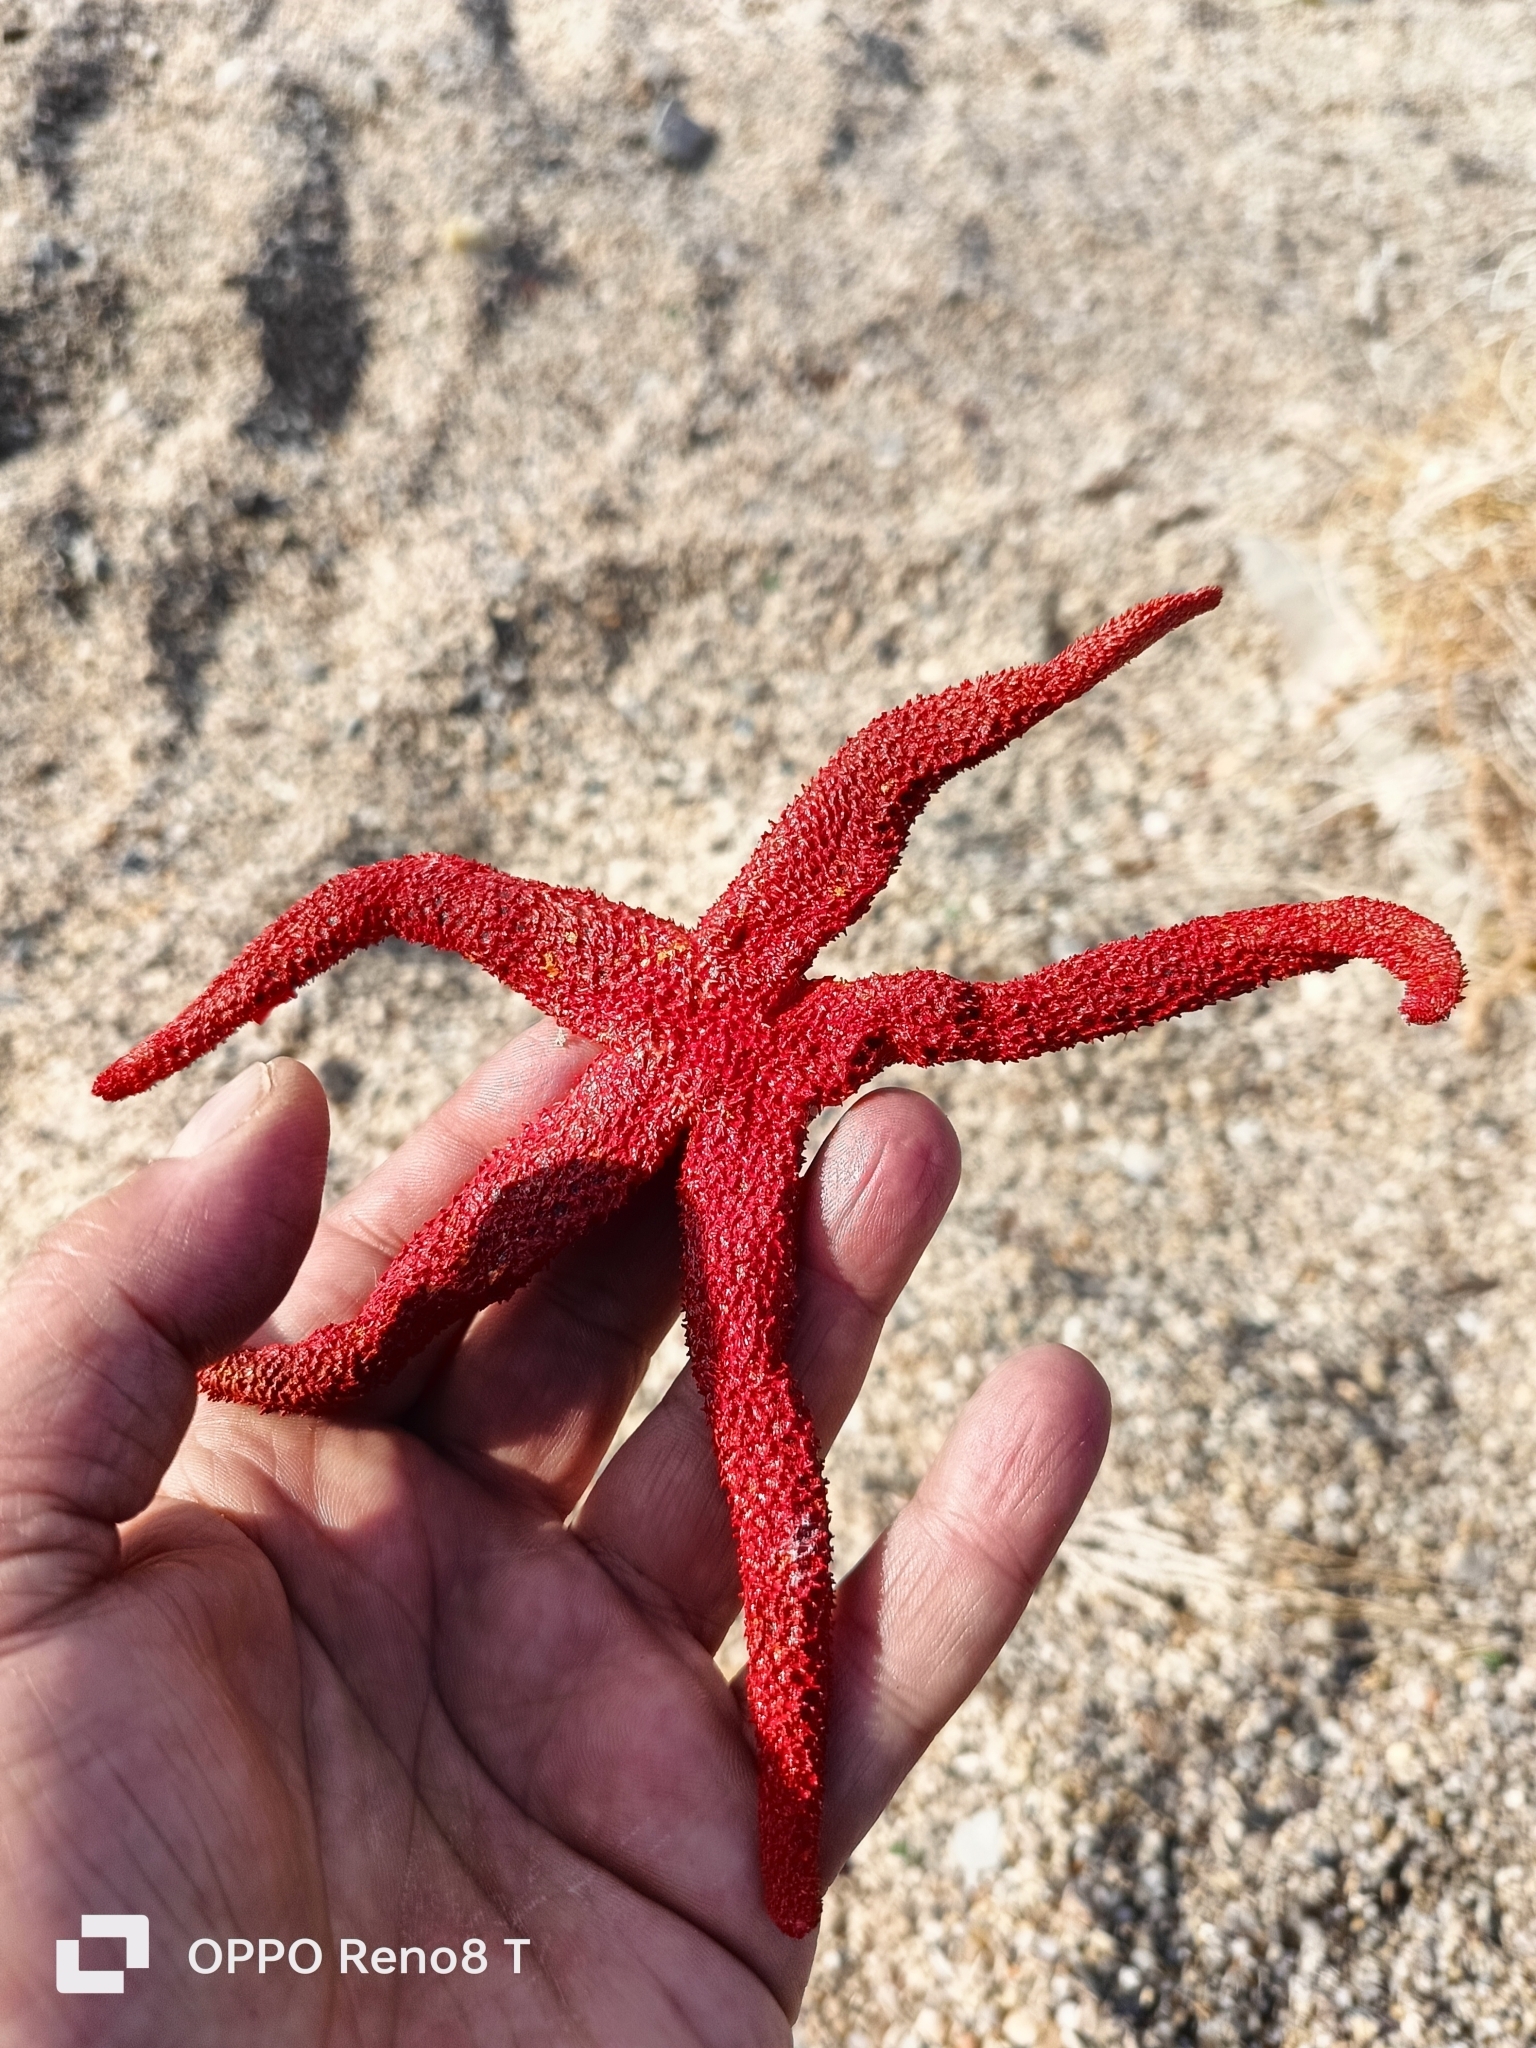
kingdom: Animalia
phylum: Echinodermata
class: Asteroidea
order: Spinulosida
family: Echinasteridae
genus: Echinaster
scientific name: Echinaster sepositus
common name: Red starfish
